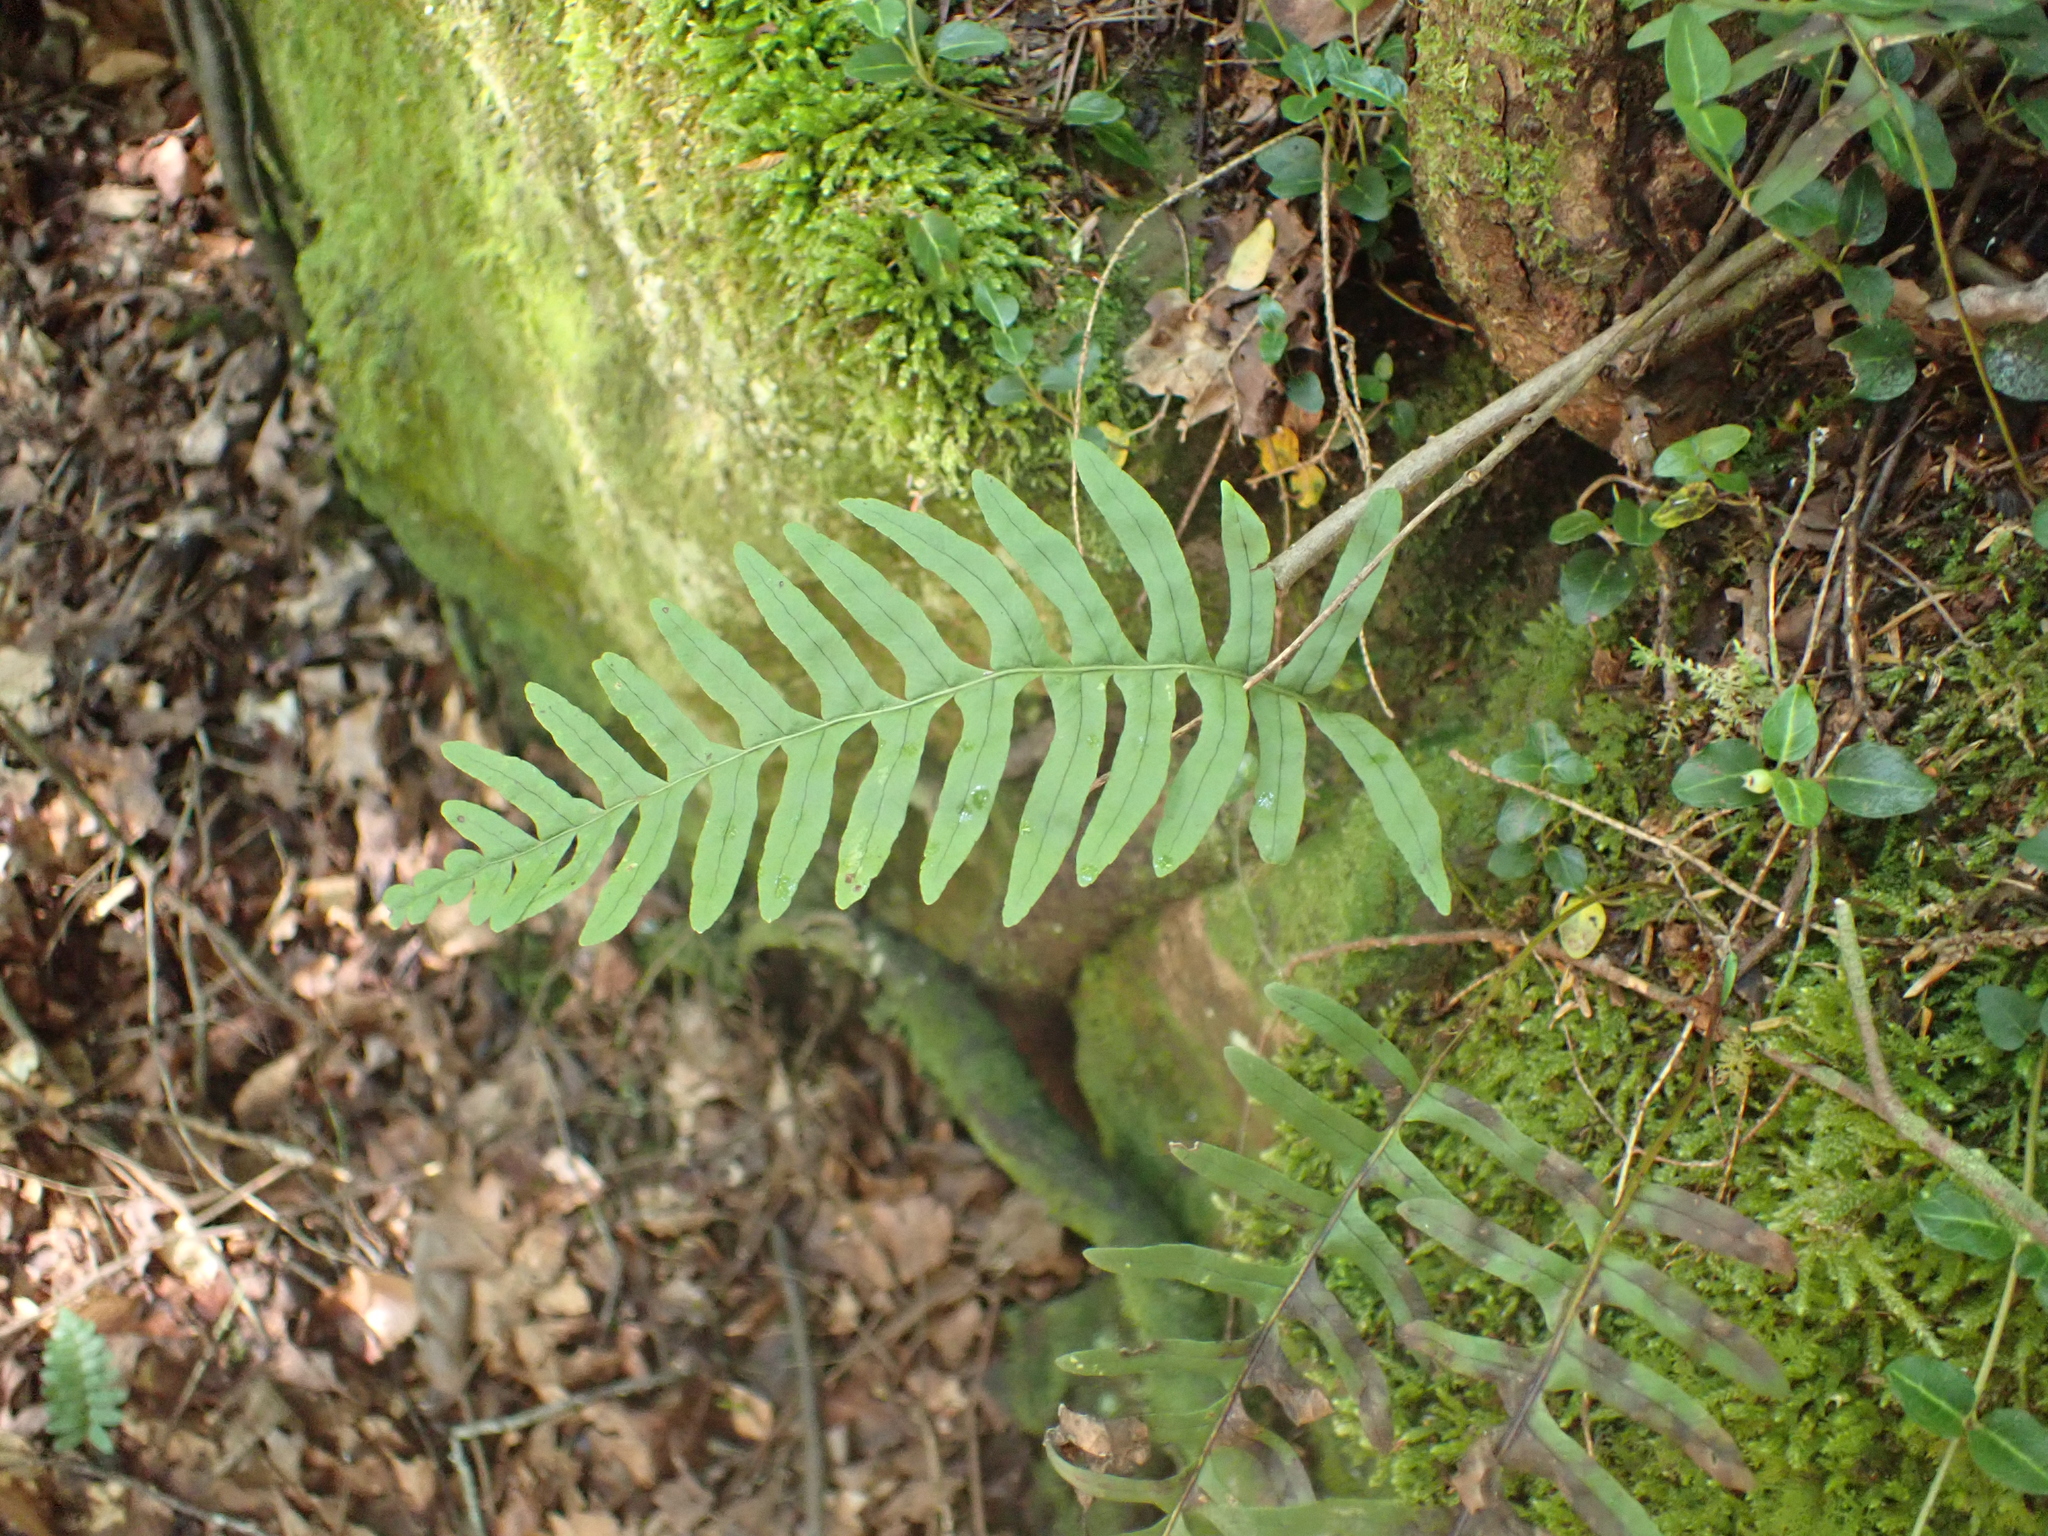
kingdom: Plantae
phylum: Tracheophyta
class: Polypodiopsida
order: Polypodiales
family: Polypodiaceae
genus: Polypodium
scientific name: Polypodium appalachianum
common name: Appalachian polypody
